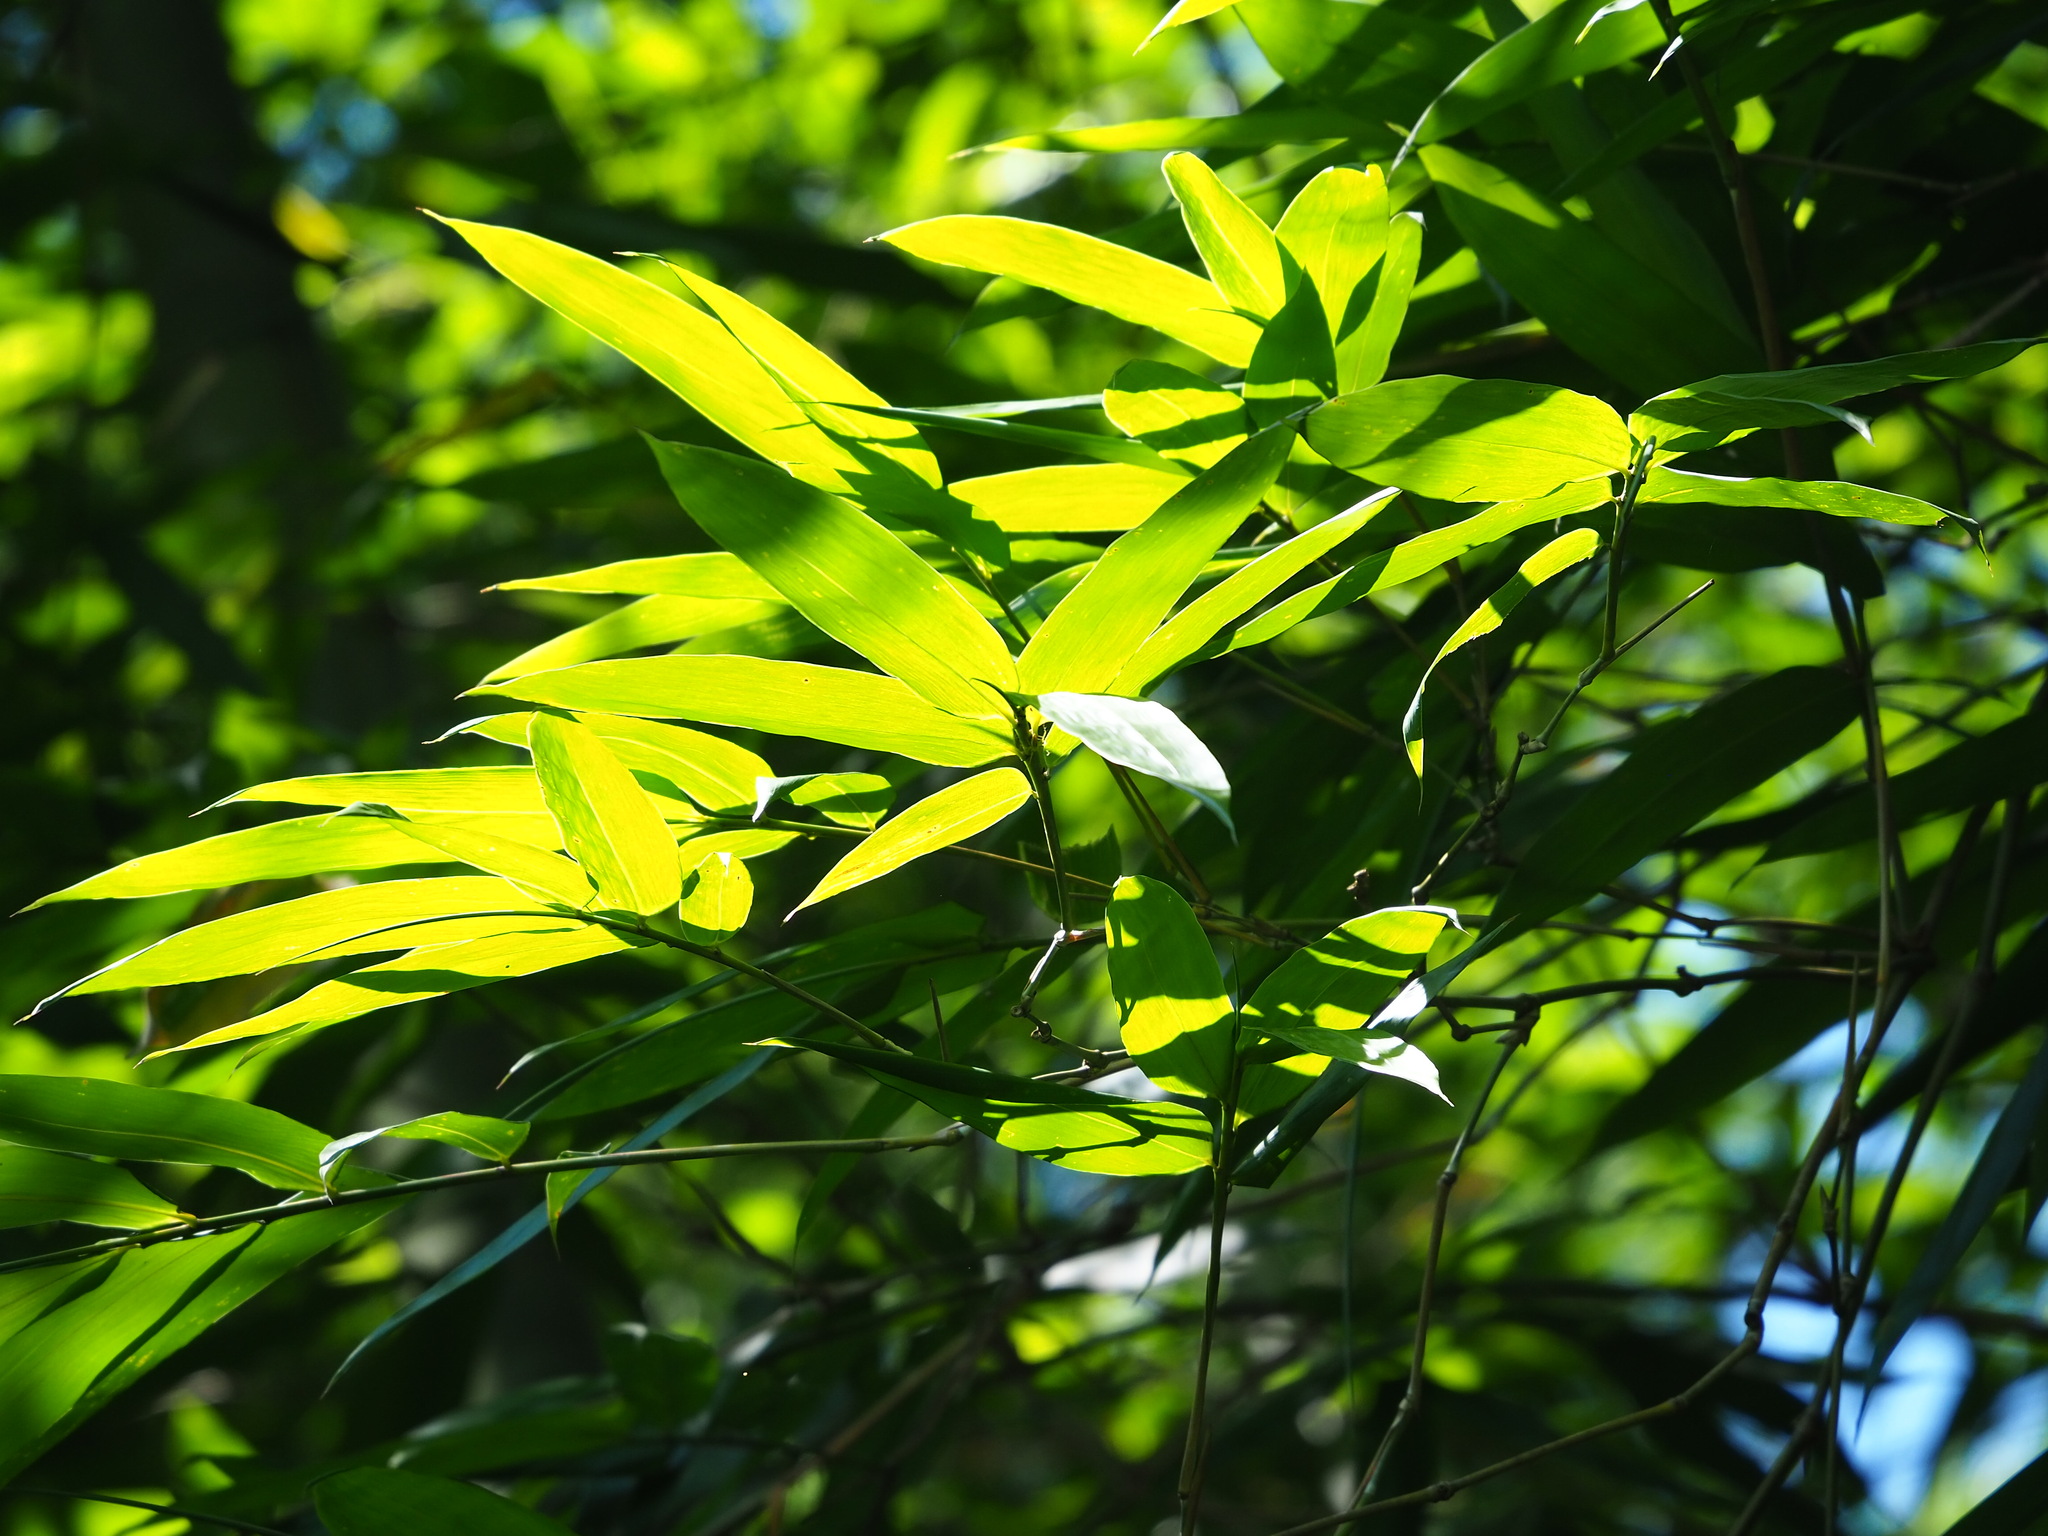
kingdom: Plantae
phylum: Tracheophyta
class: Liliopsida
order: Poales
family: Poaceae
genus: Bambusa
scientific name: Bambusa beecheyana
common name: Beechey's bamboo
